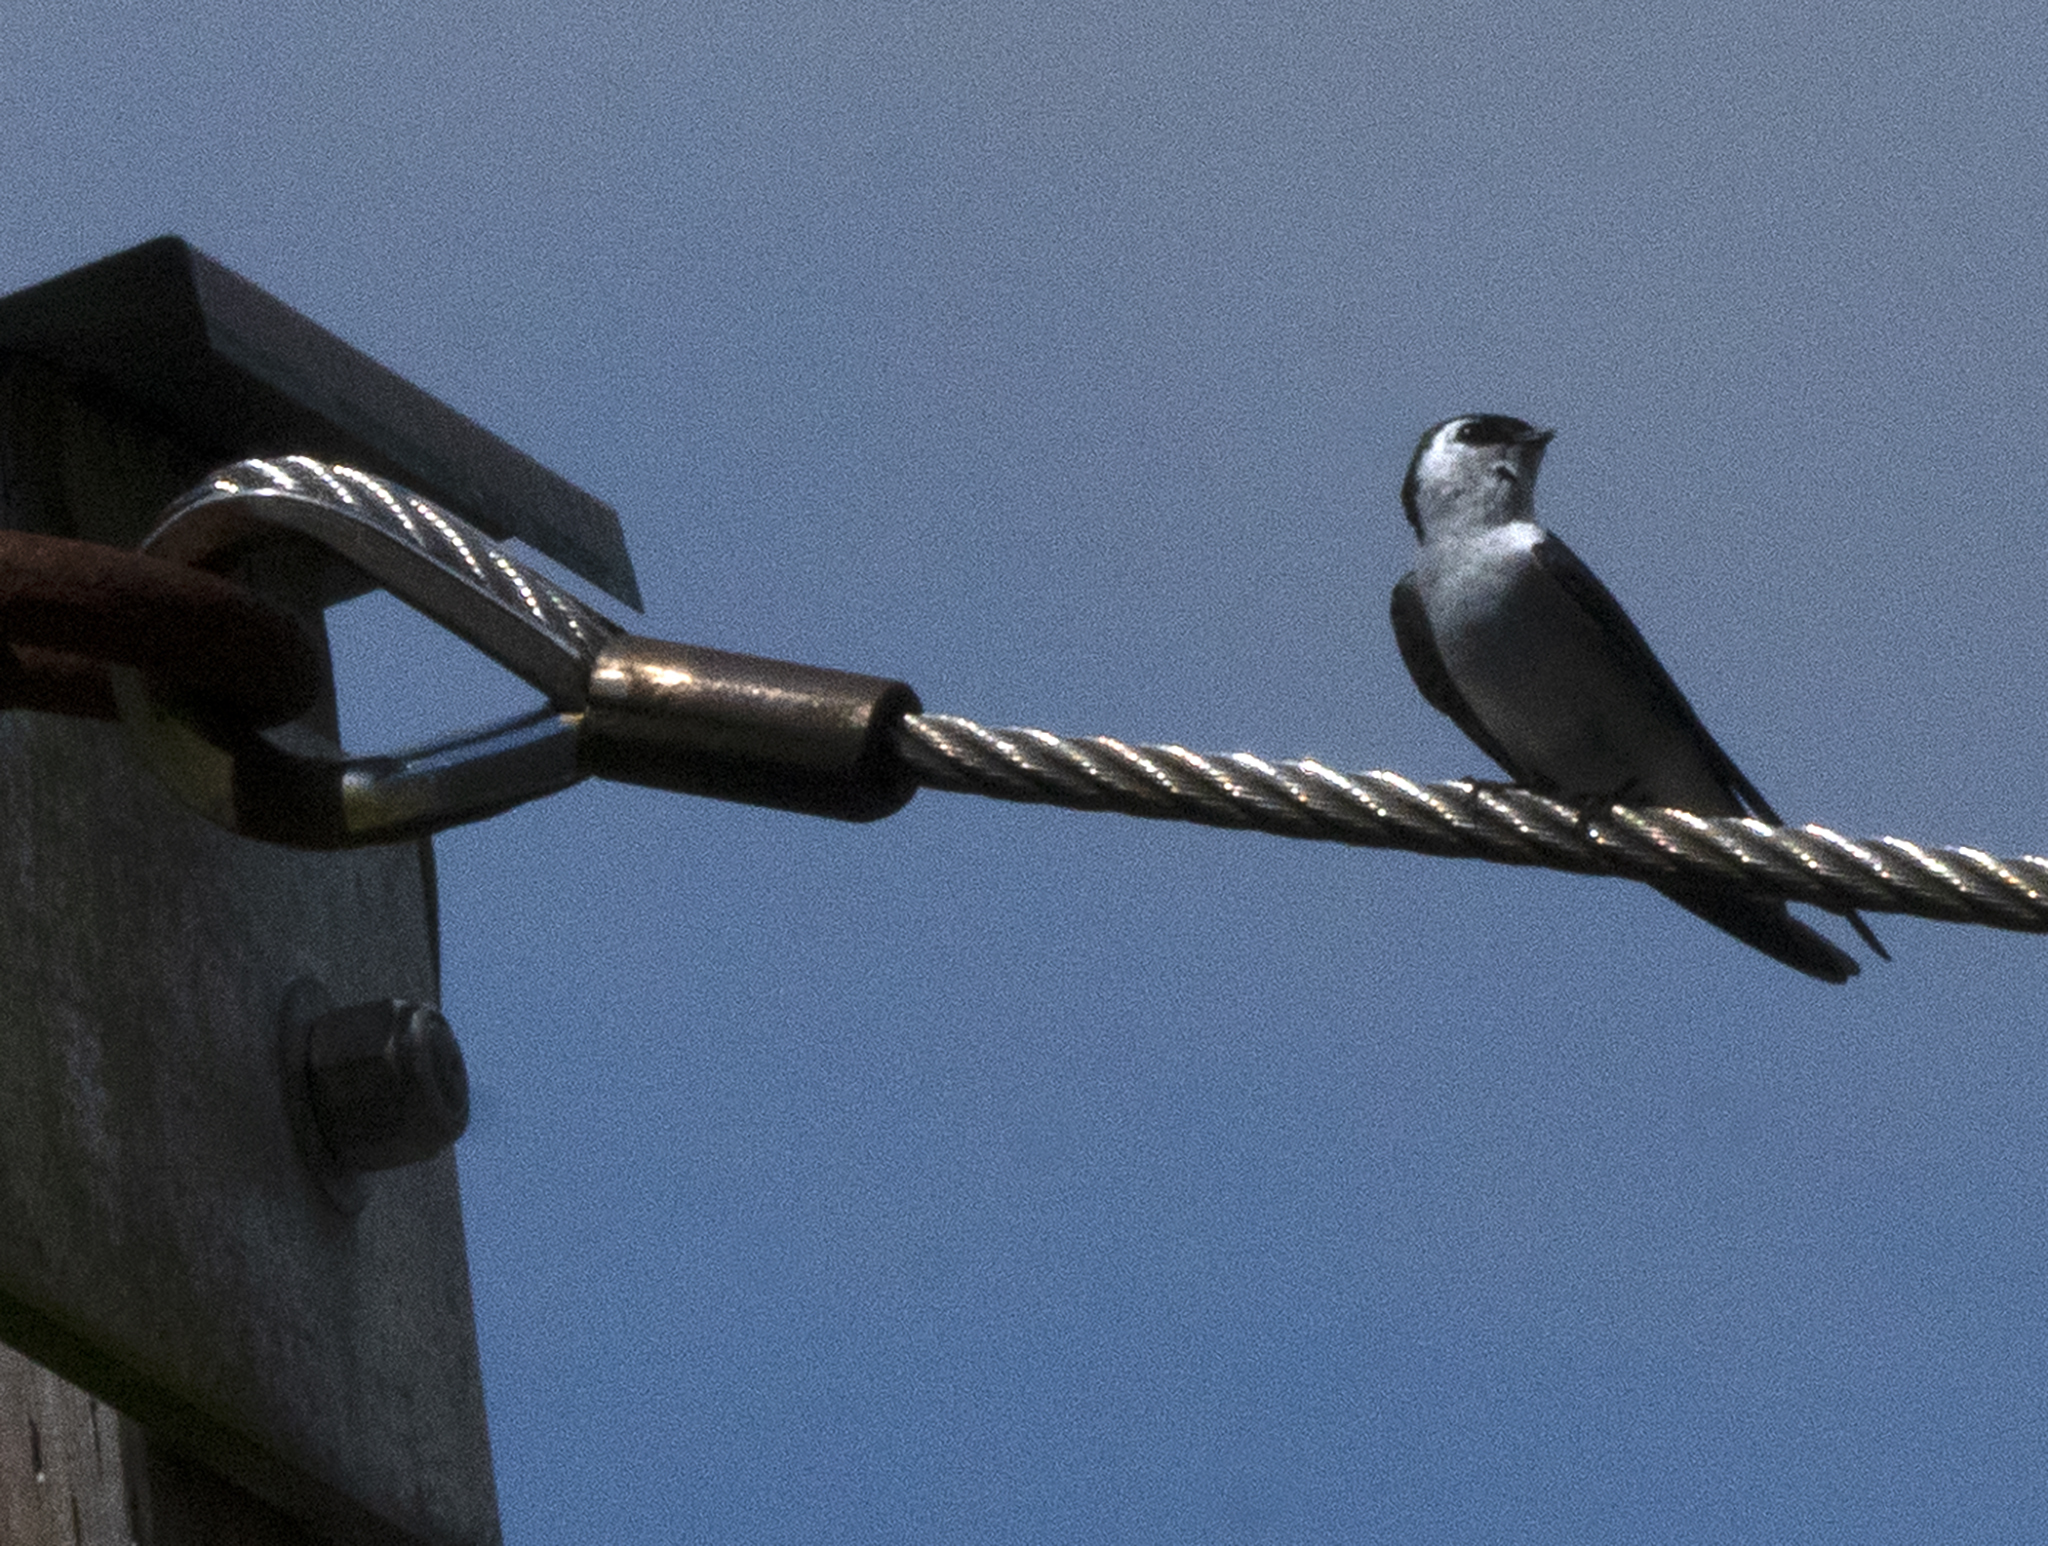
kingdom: Animalia
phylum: Chordata
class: Aves
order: Passeriformes
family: Hirundinidae
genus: Tachycineta
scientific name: Tachycineta thalassina
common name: Violet-green swallow
